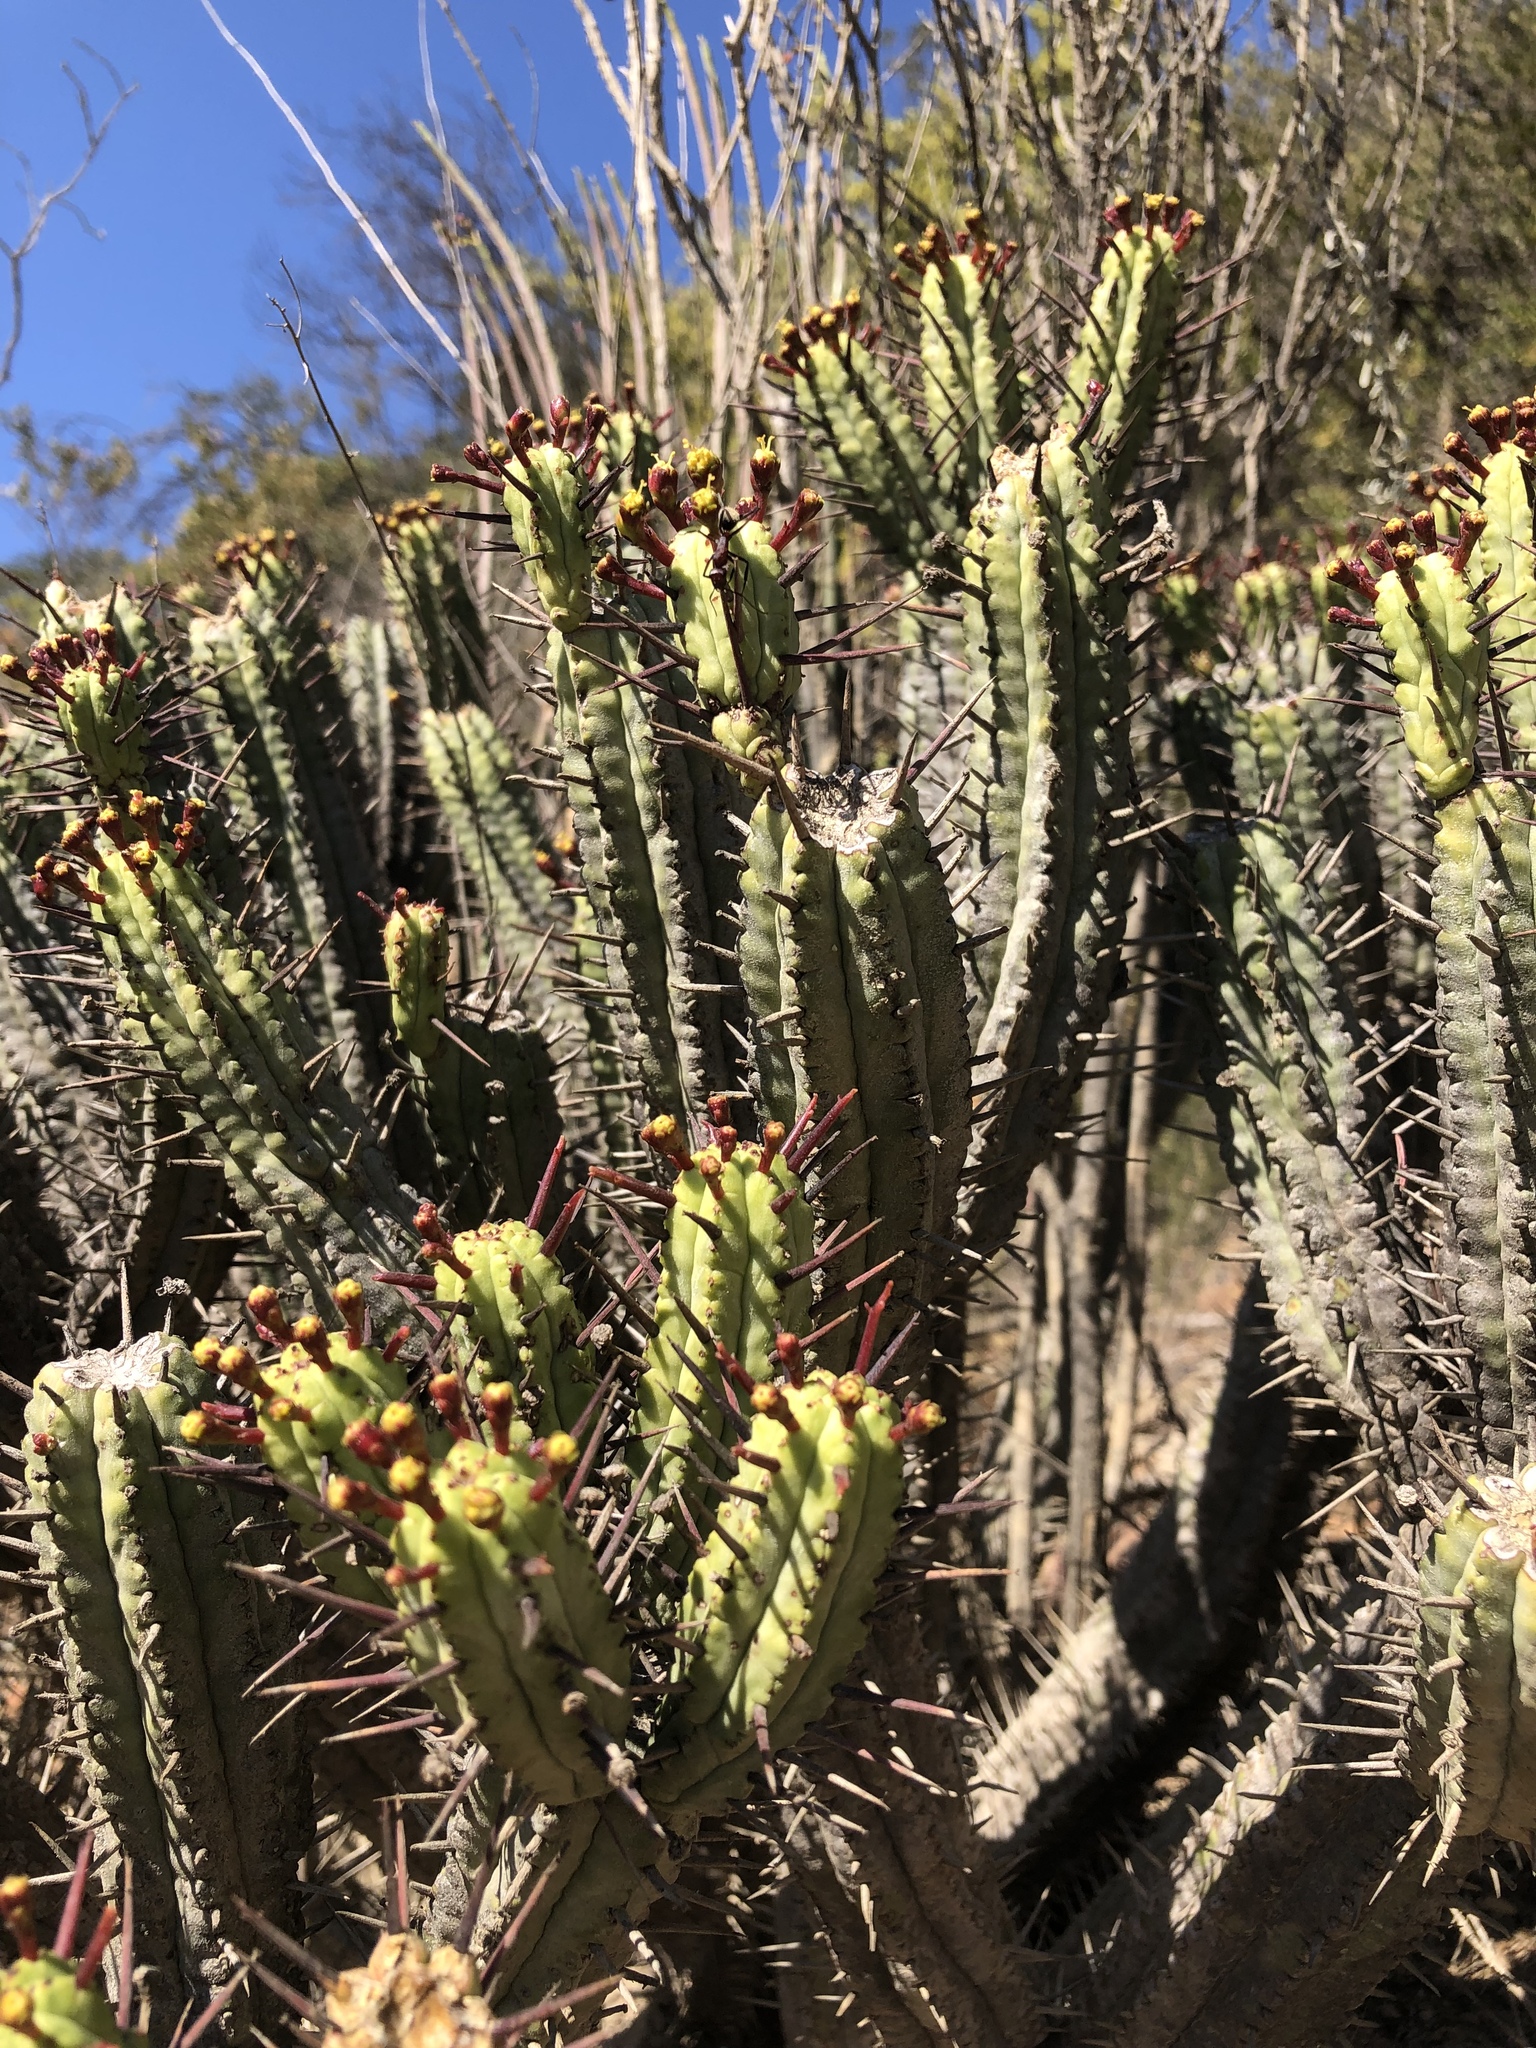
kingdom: Plantae
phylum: Tracheophyta
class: Magnoliopsida
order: Malpighiales
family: Euphorbiaceae
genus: Euphorbia
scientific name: Euphorbia heptagona
